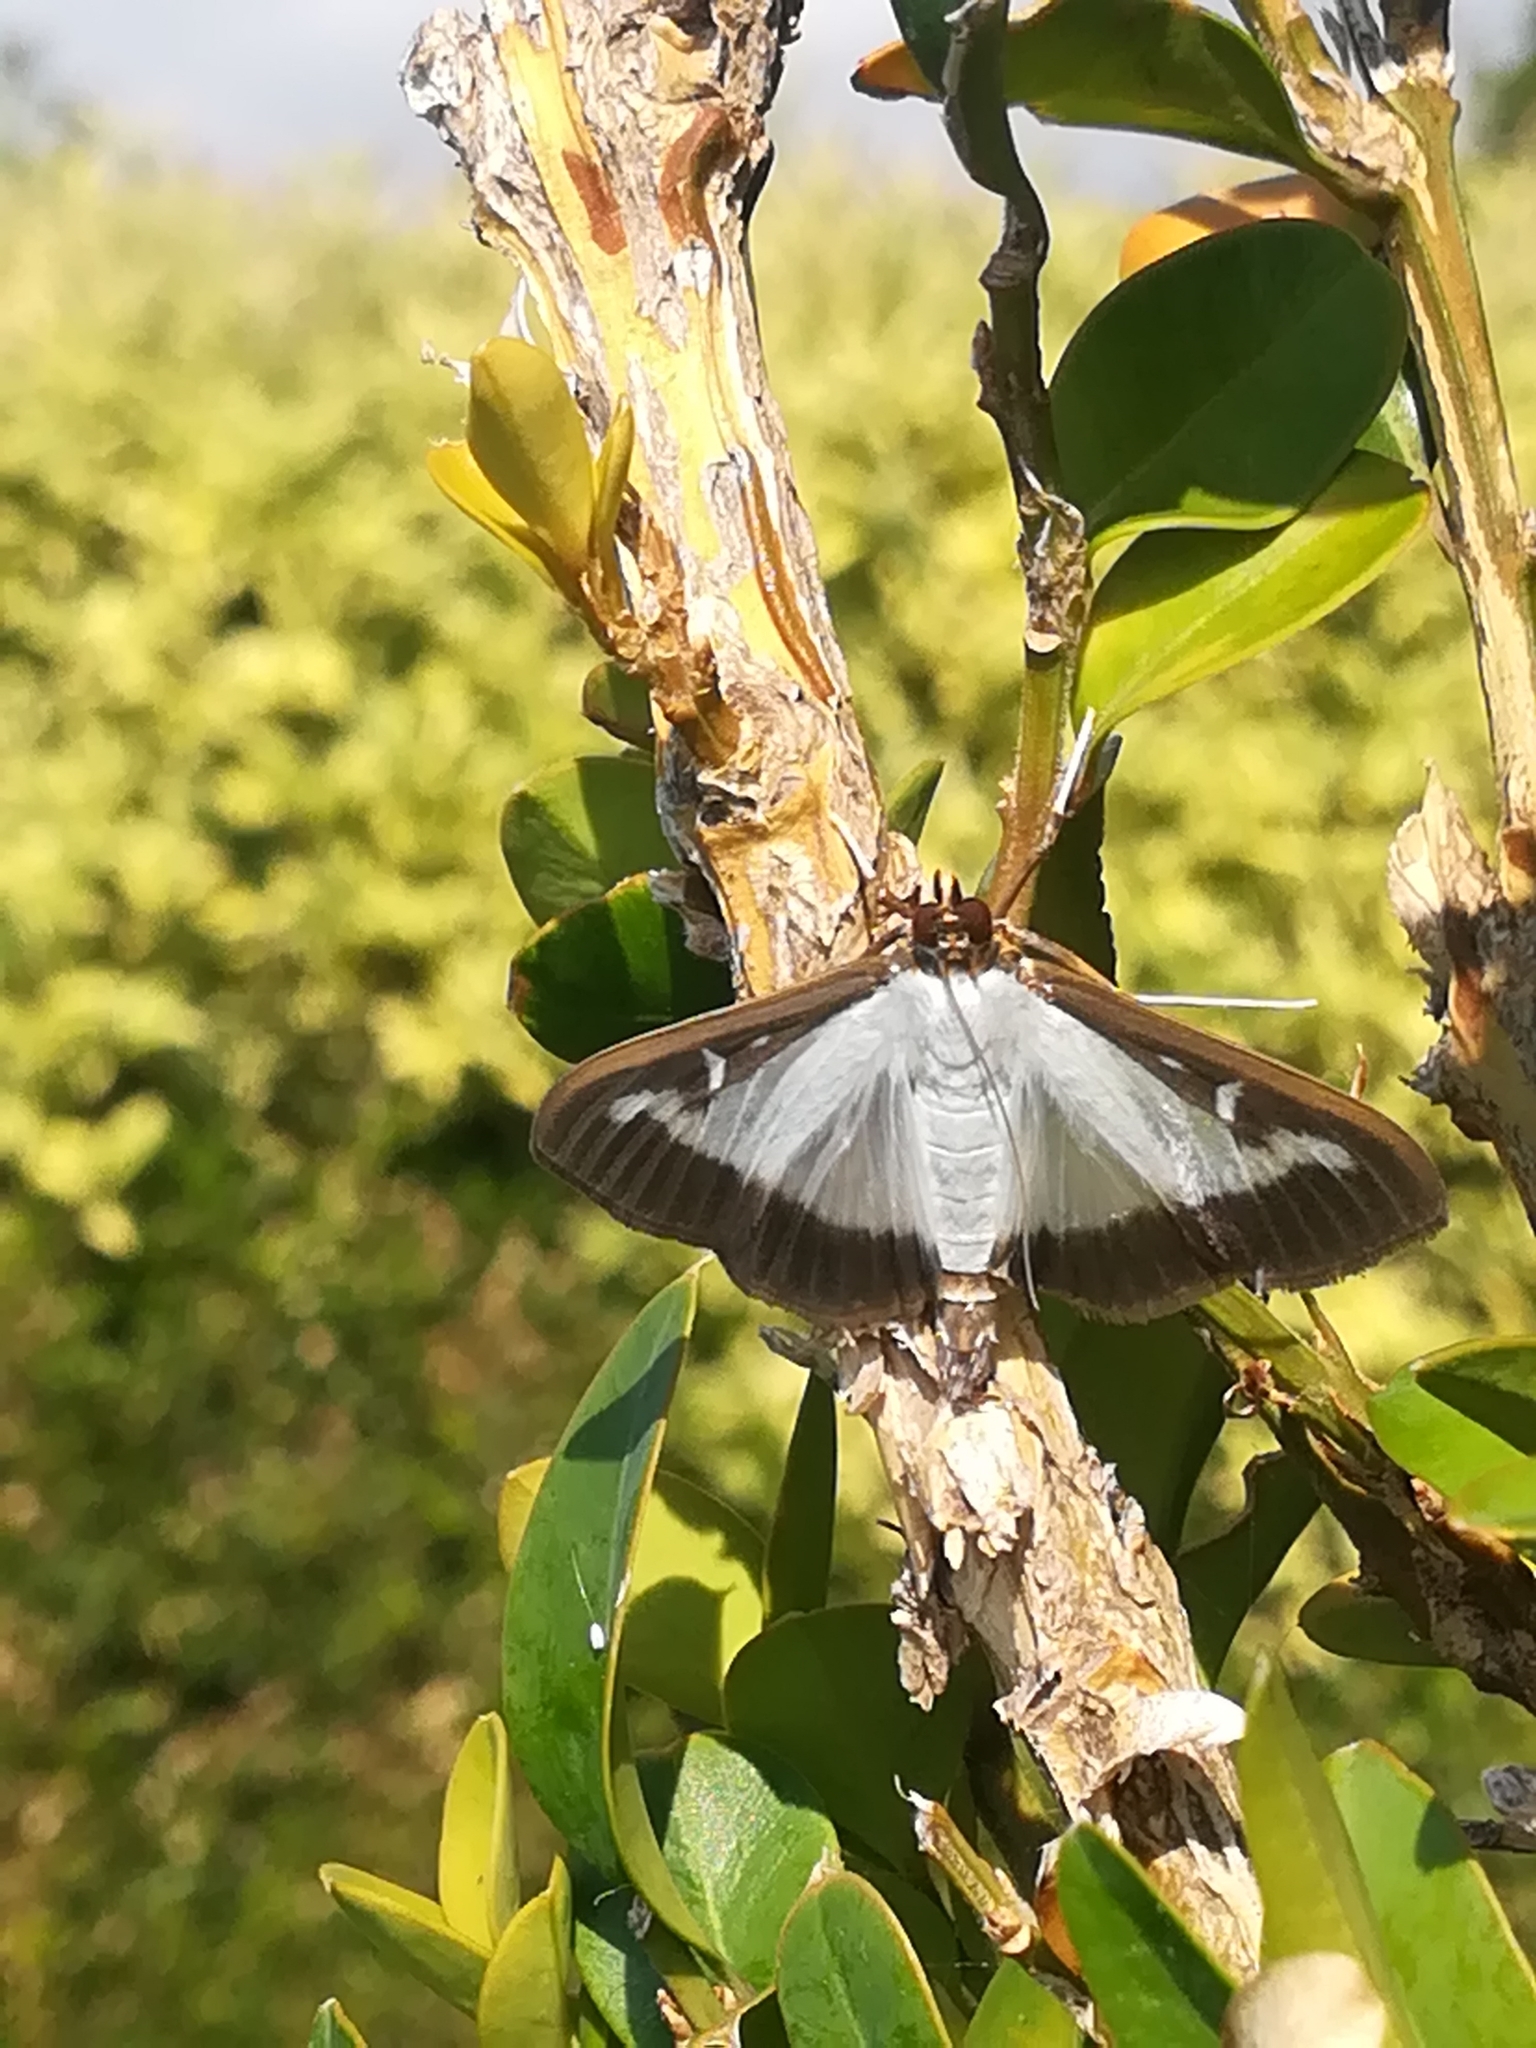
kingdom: Animalia
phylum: Arthropoda
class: Insecta
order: Lepidoptera
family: Crambidae
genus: Cydalima
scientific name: Cydalima perspectalis
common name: Box tree moth
